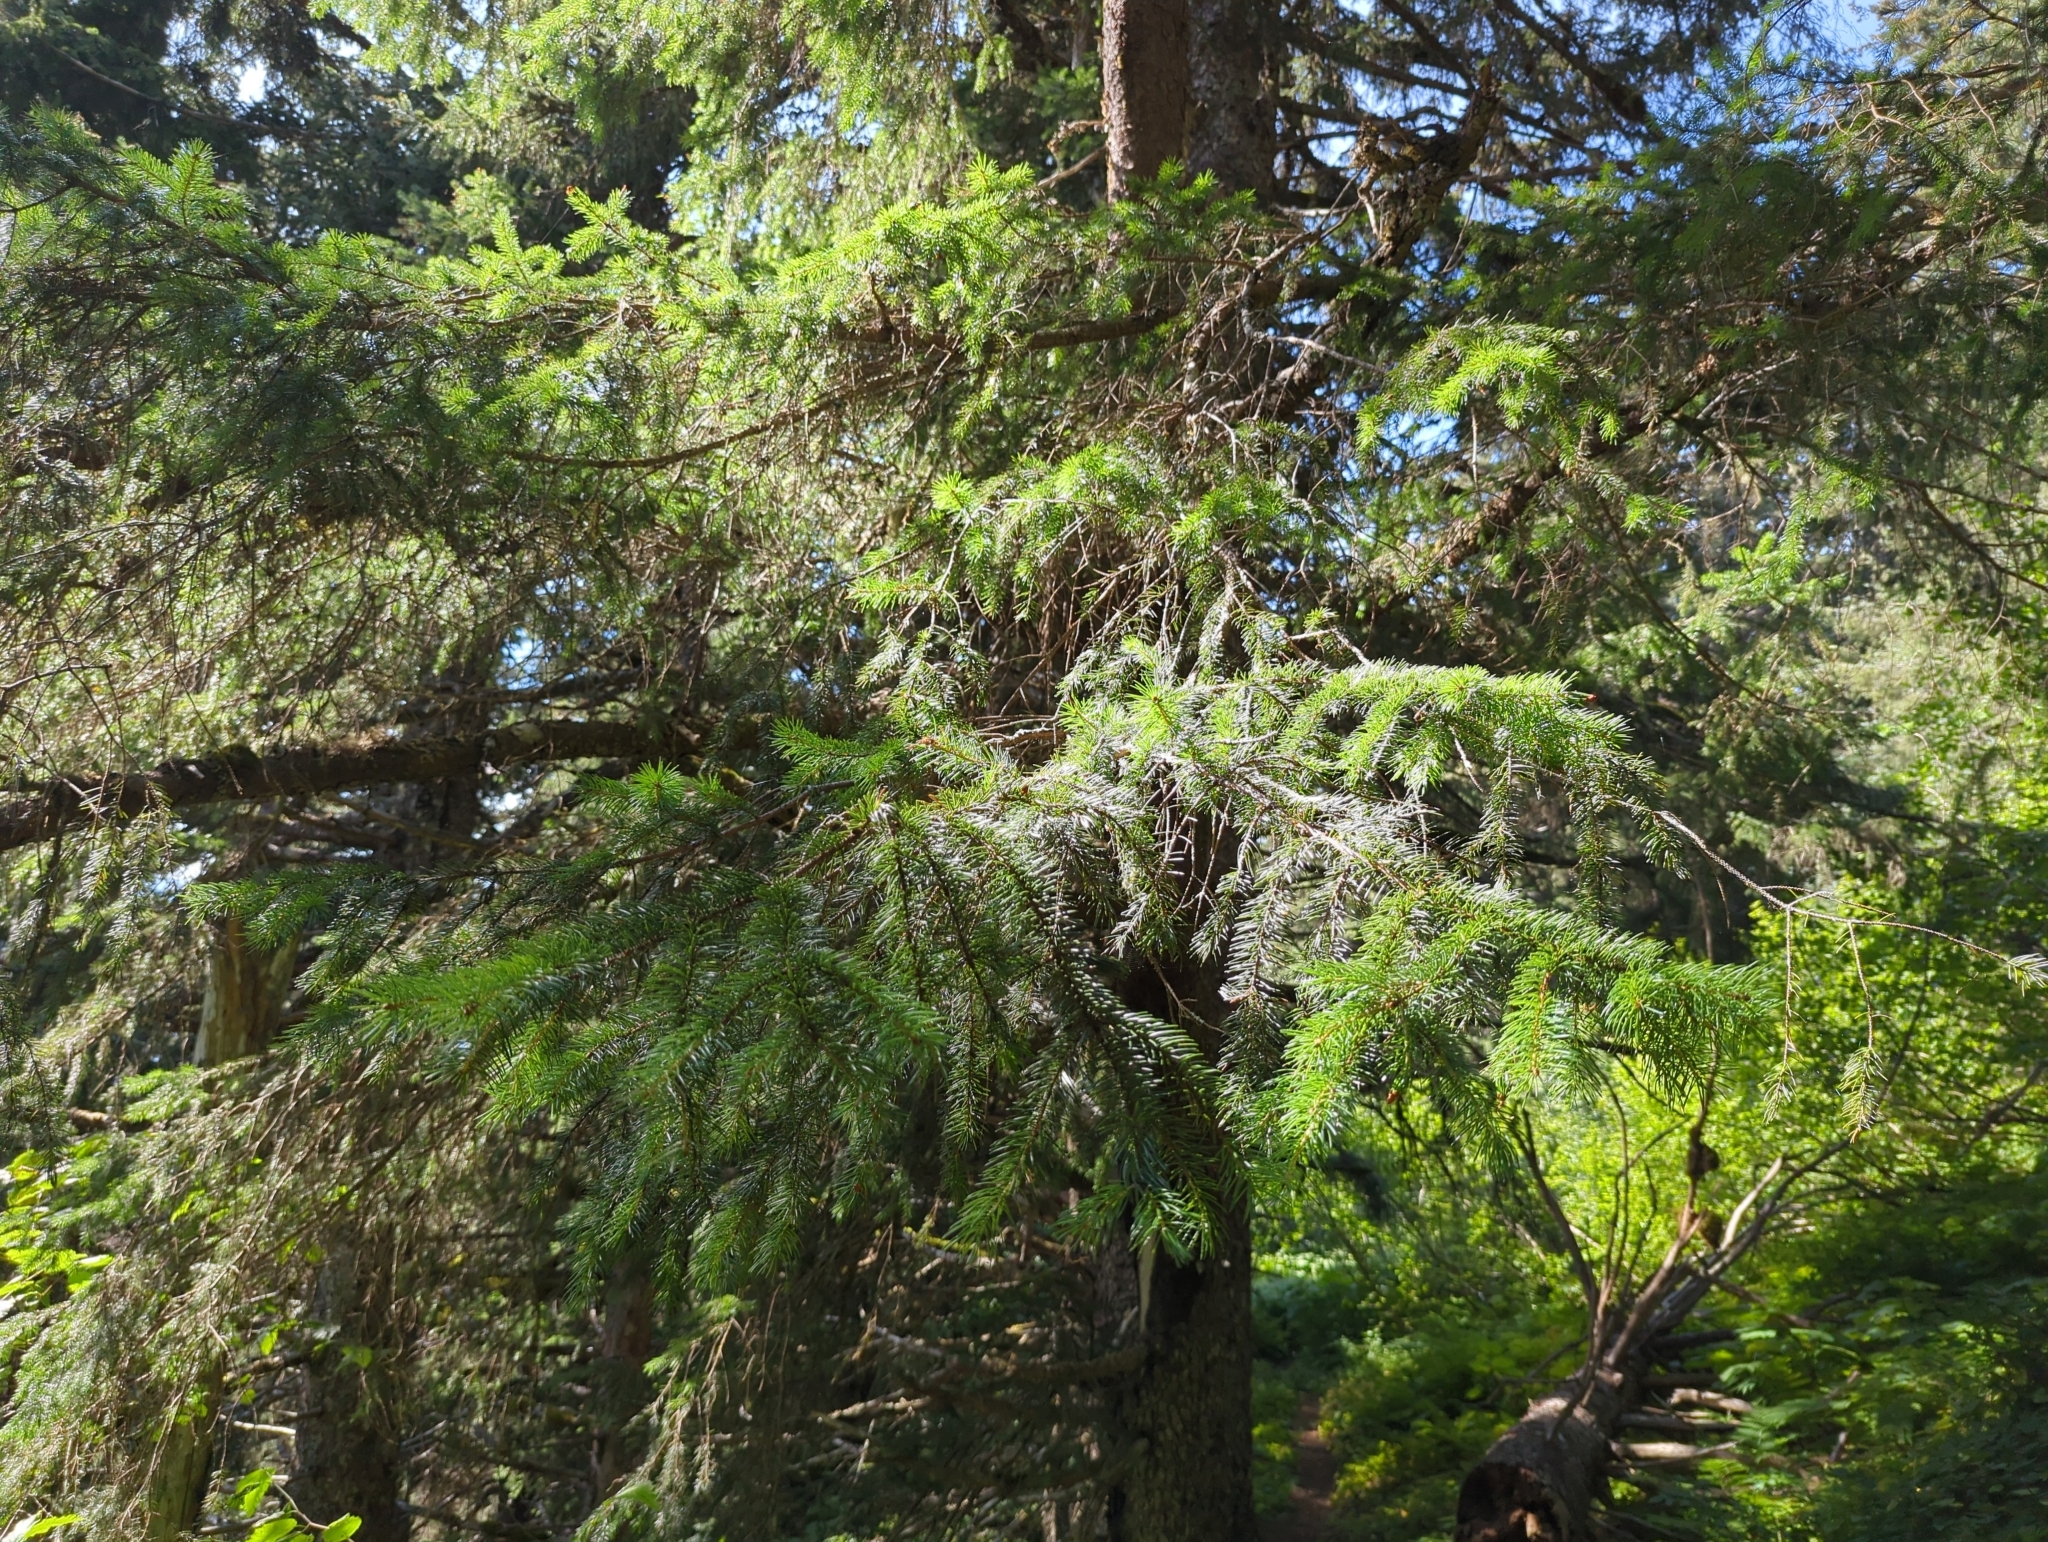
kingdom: Plantae
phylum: Tracheophyta
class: Pinopsida
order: Pinales
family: Pinaceae
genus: Picea
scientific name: Picea sitchensis
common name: Sitka spruce
